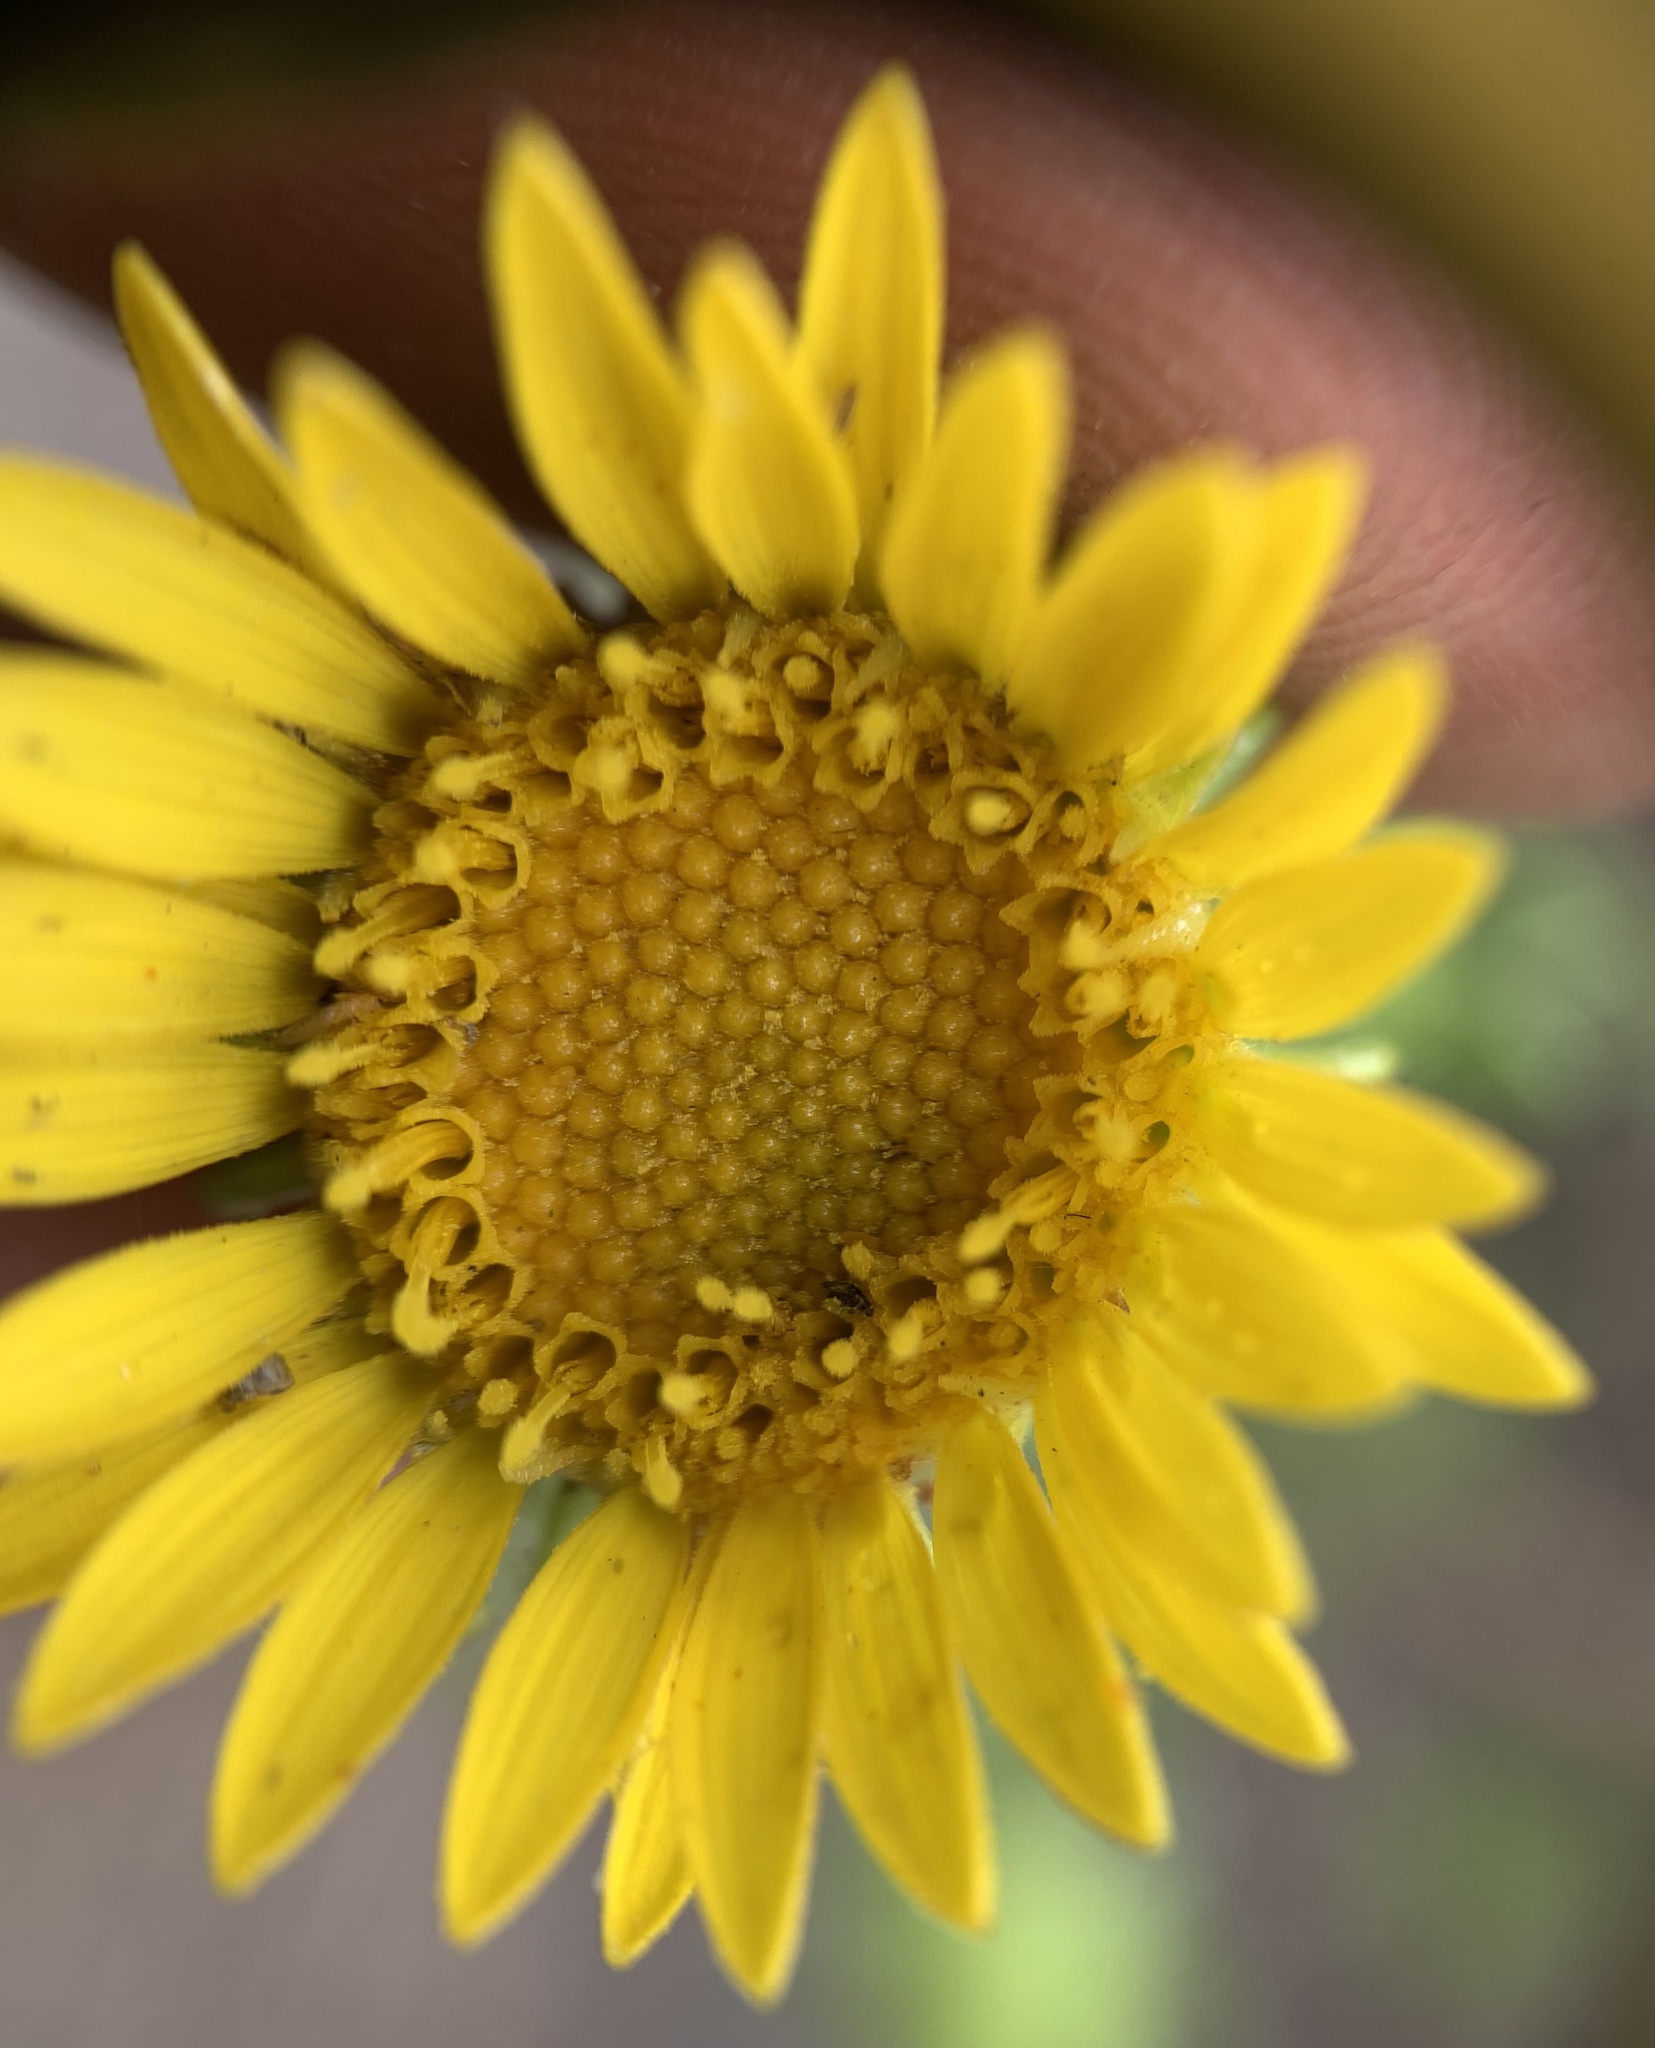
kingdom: Plantae
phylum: Tracheophyta
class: Magnoliopsida
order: Asterales
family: Asteraceae
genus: Grindelia
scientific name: Grindelia squarrosa
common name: Curly-cup gumweed
